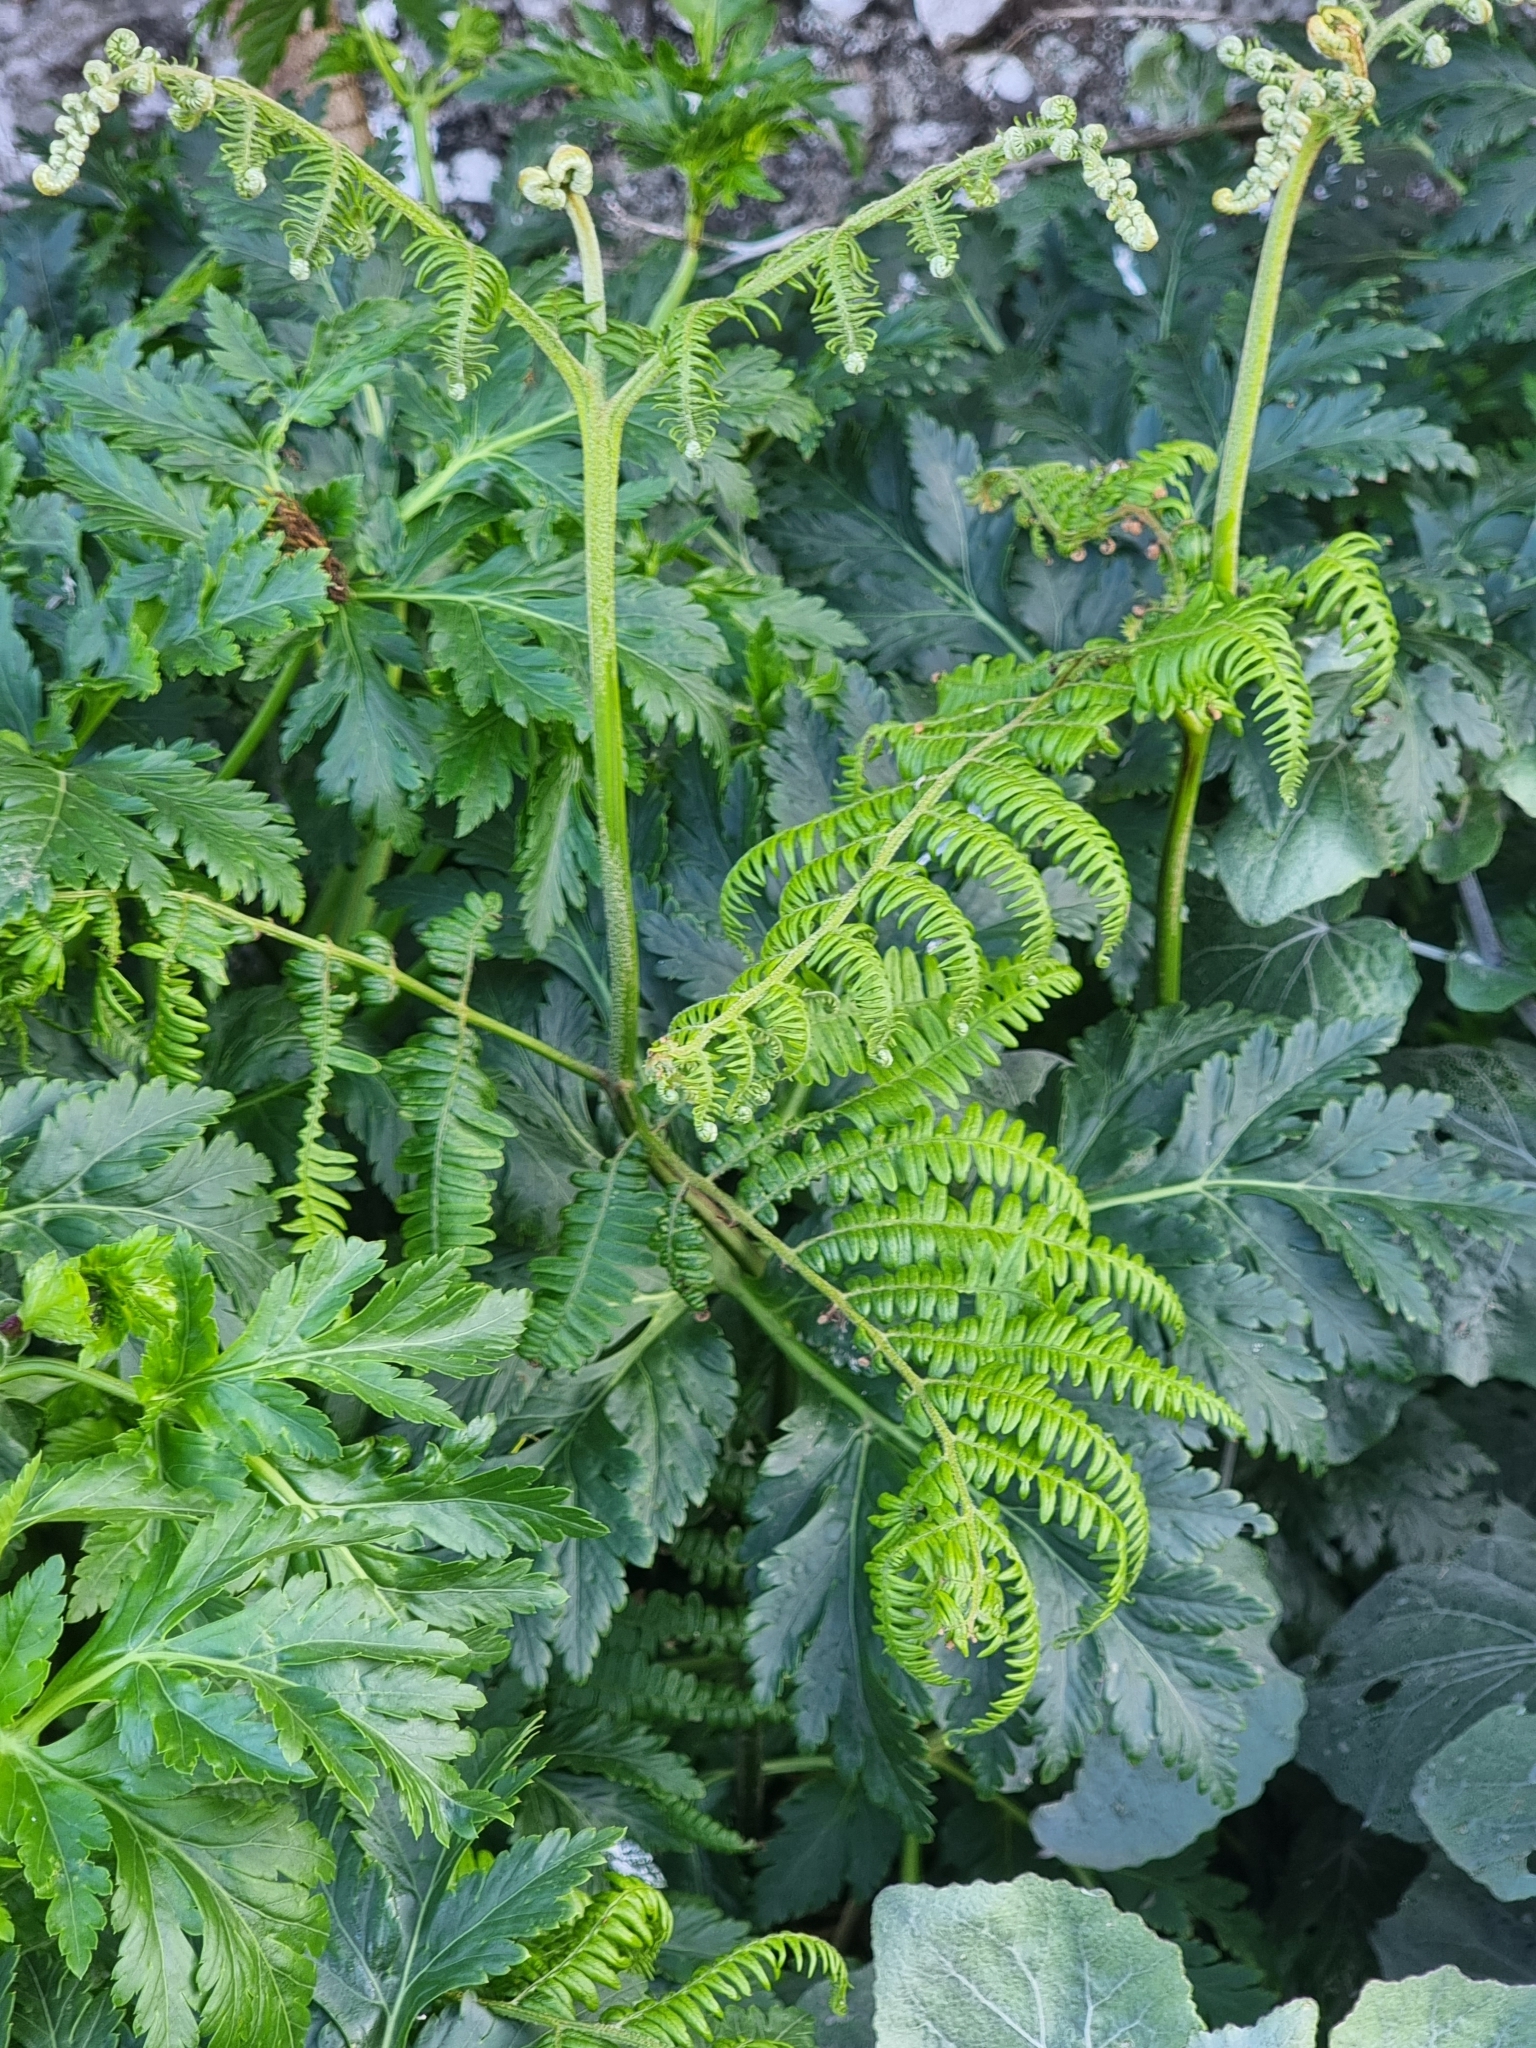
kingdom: Plantae
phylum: Tracheophyta
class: Polypodiopsida
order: Polypodiales
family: Dennstaedtiaceae
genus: Pteridium
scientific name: Pteridium aquilinum
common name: Bracken
